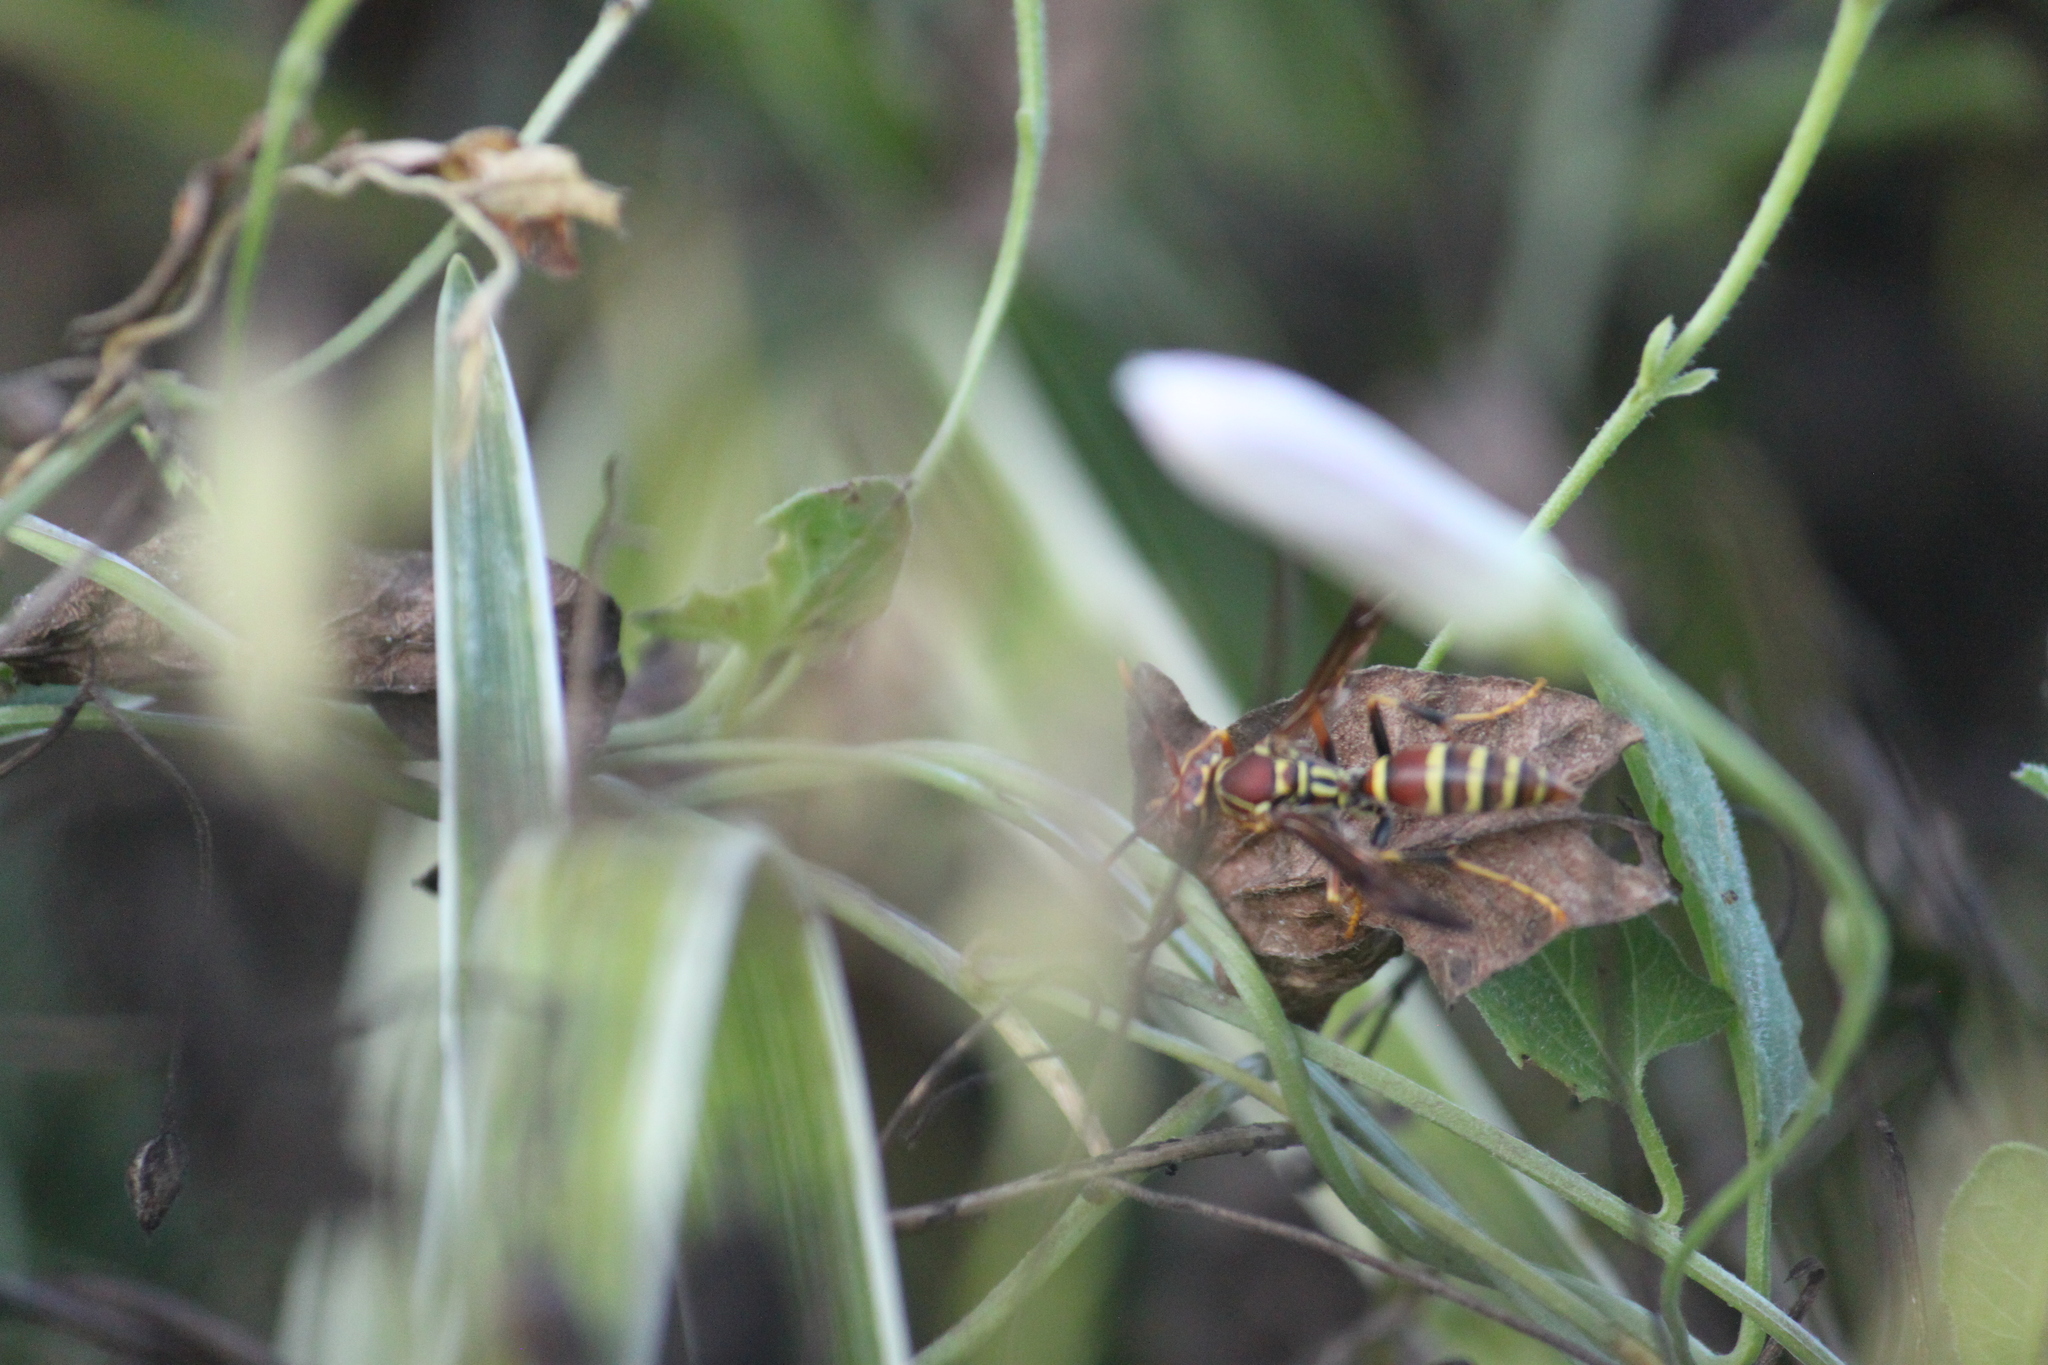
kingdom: Animalia
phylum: Arthropoda
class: Insecta
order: Hymenoptera
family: Eumenidae
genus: Polistes
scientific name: Polistes exclamans
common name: Paper wasp
